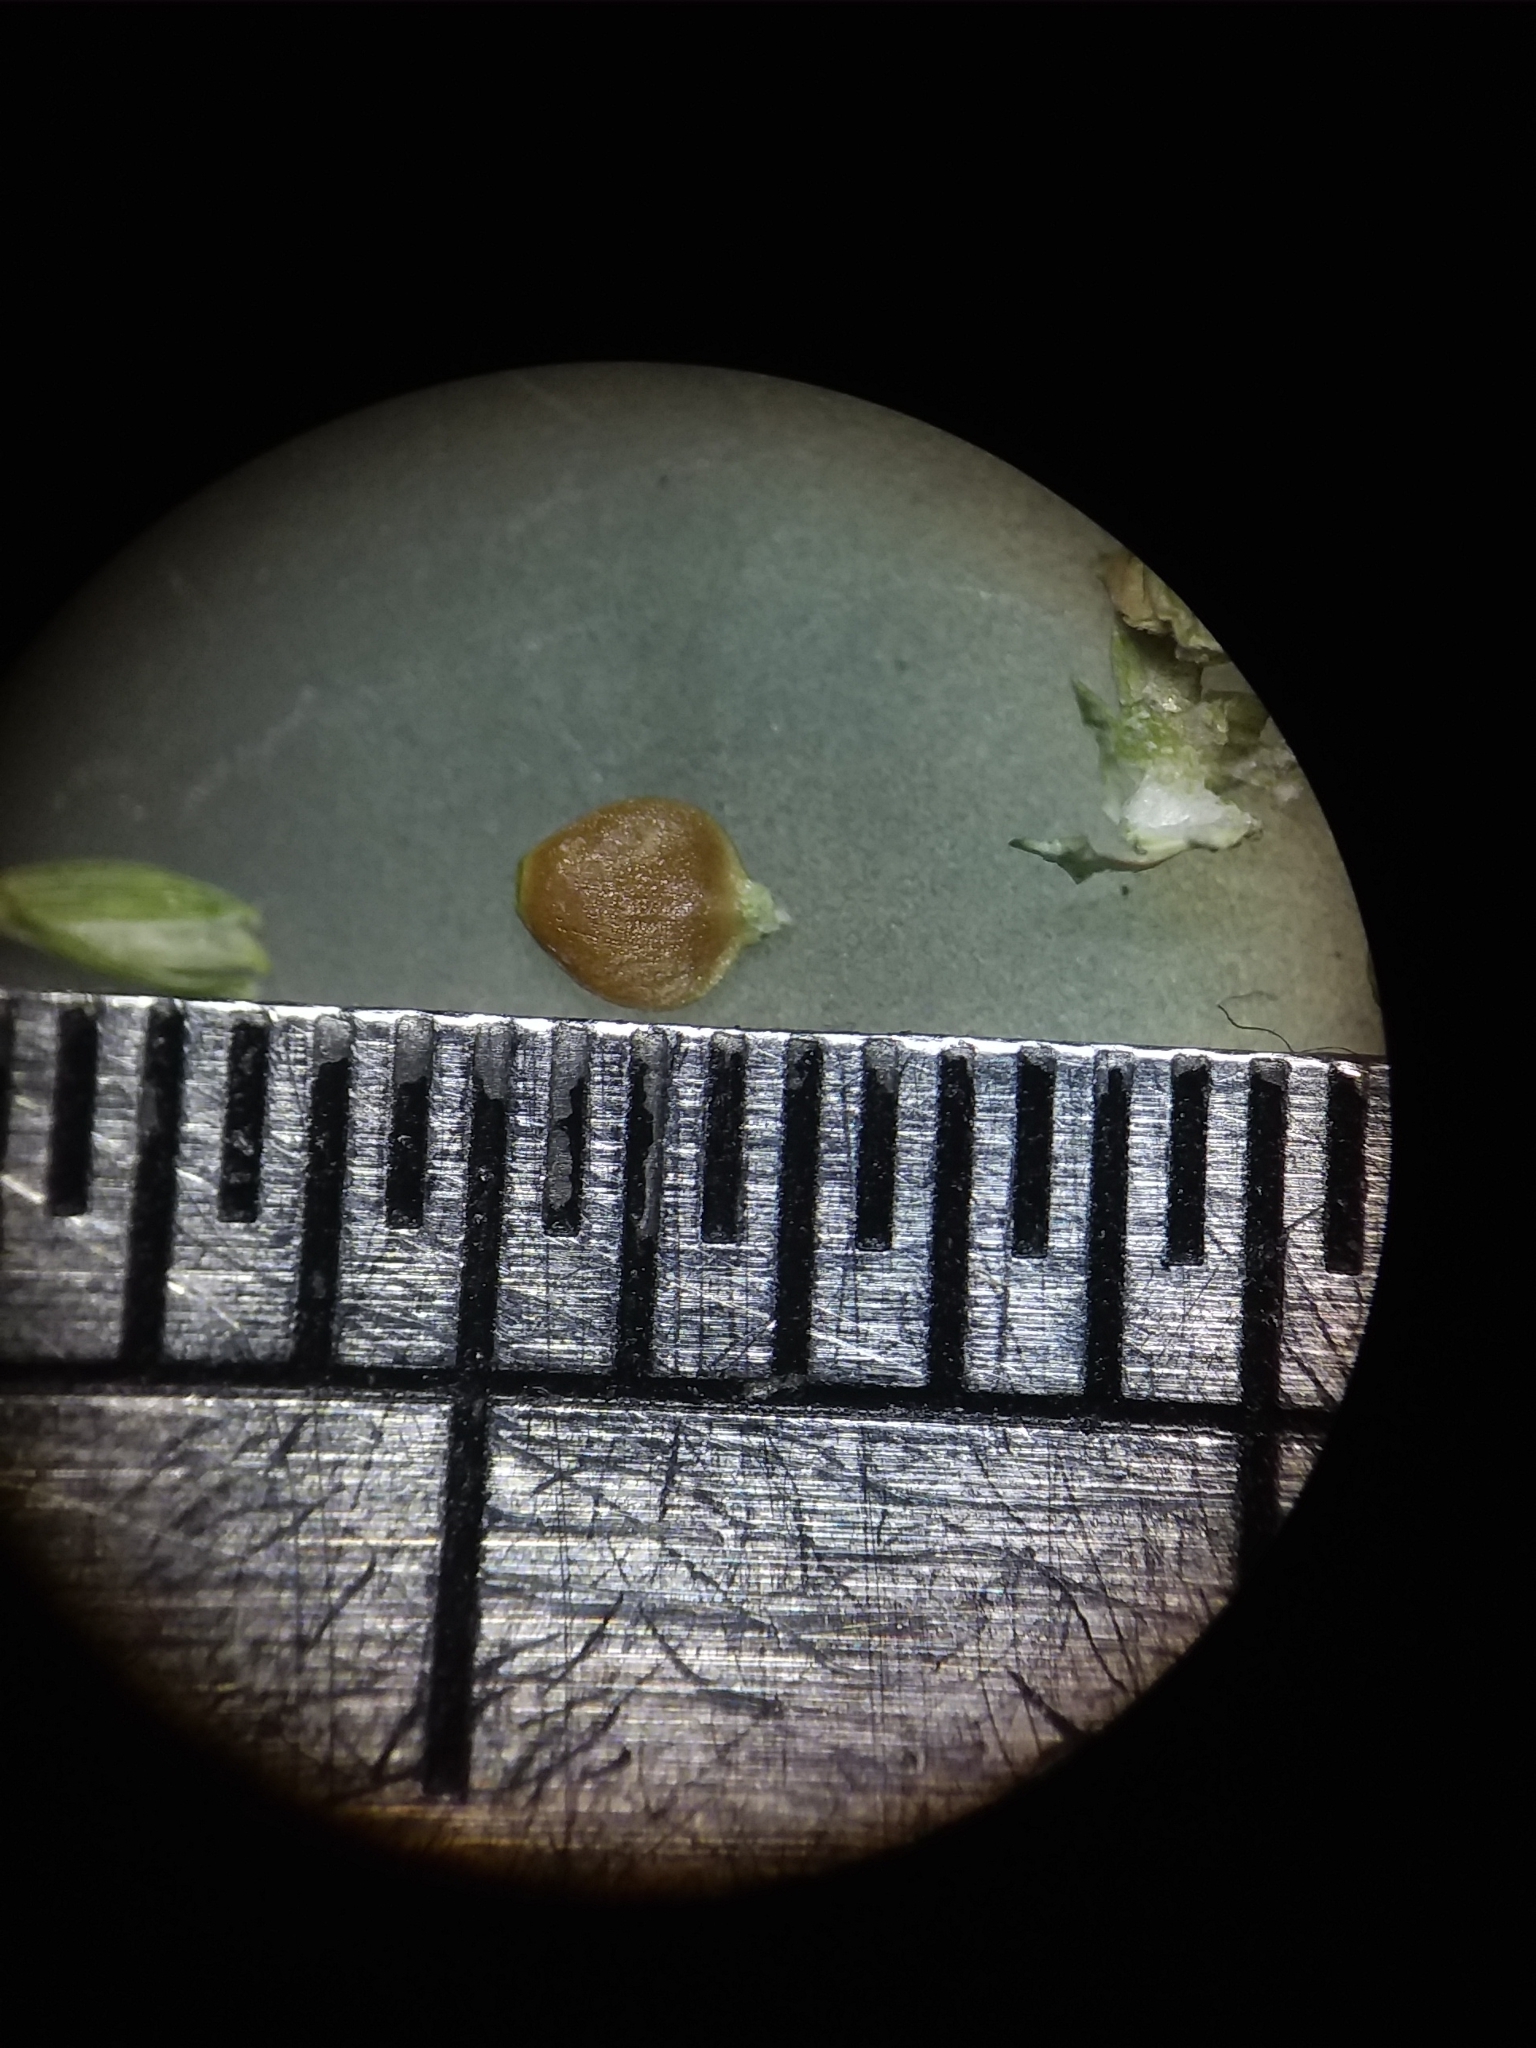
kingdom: Plantae
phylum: Tracheophyta
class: Liliopsida
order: Poales
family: Cyperaceae
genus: Carex
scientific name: Carex retroflexa
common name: Reflexed sedge
